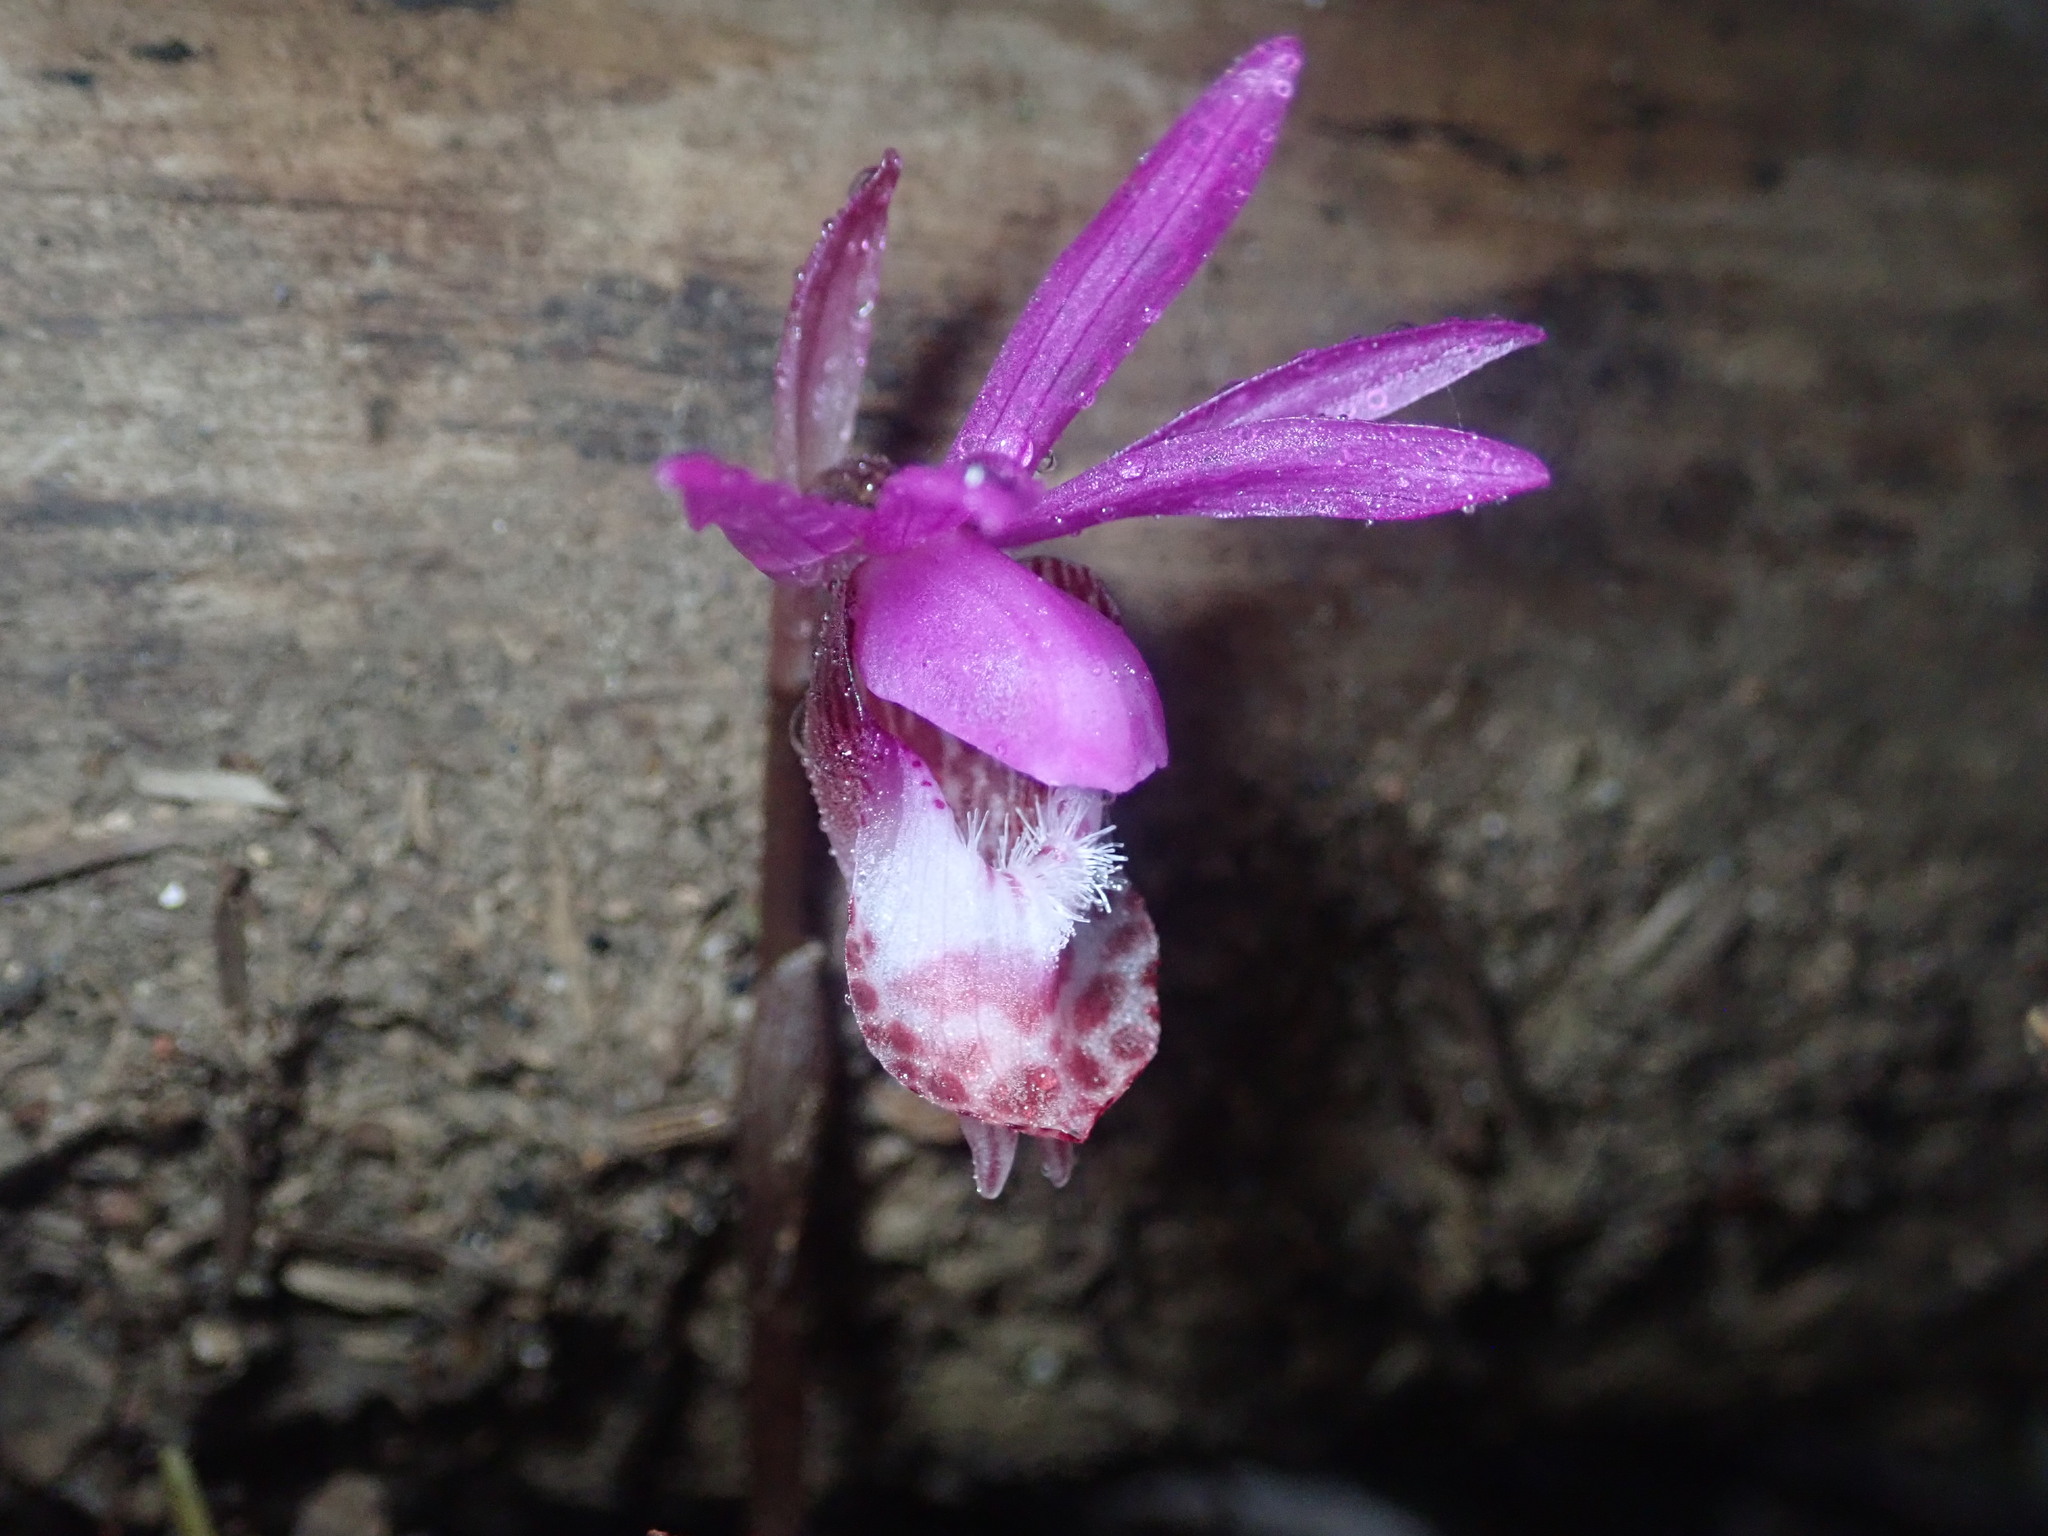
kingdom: Plantae
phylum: Tracheophyta
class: Liliopsida
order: Asparagales
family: Orchidaceae
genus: Calypso
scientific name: Calypso bulbosa
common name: Calypso
